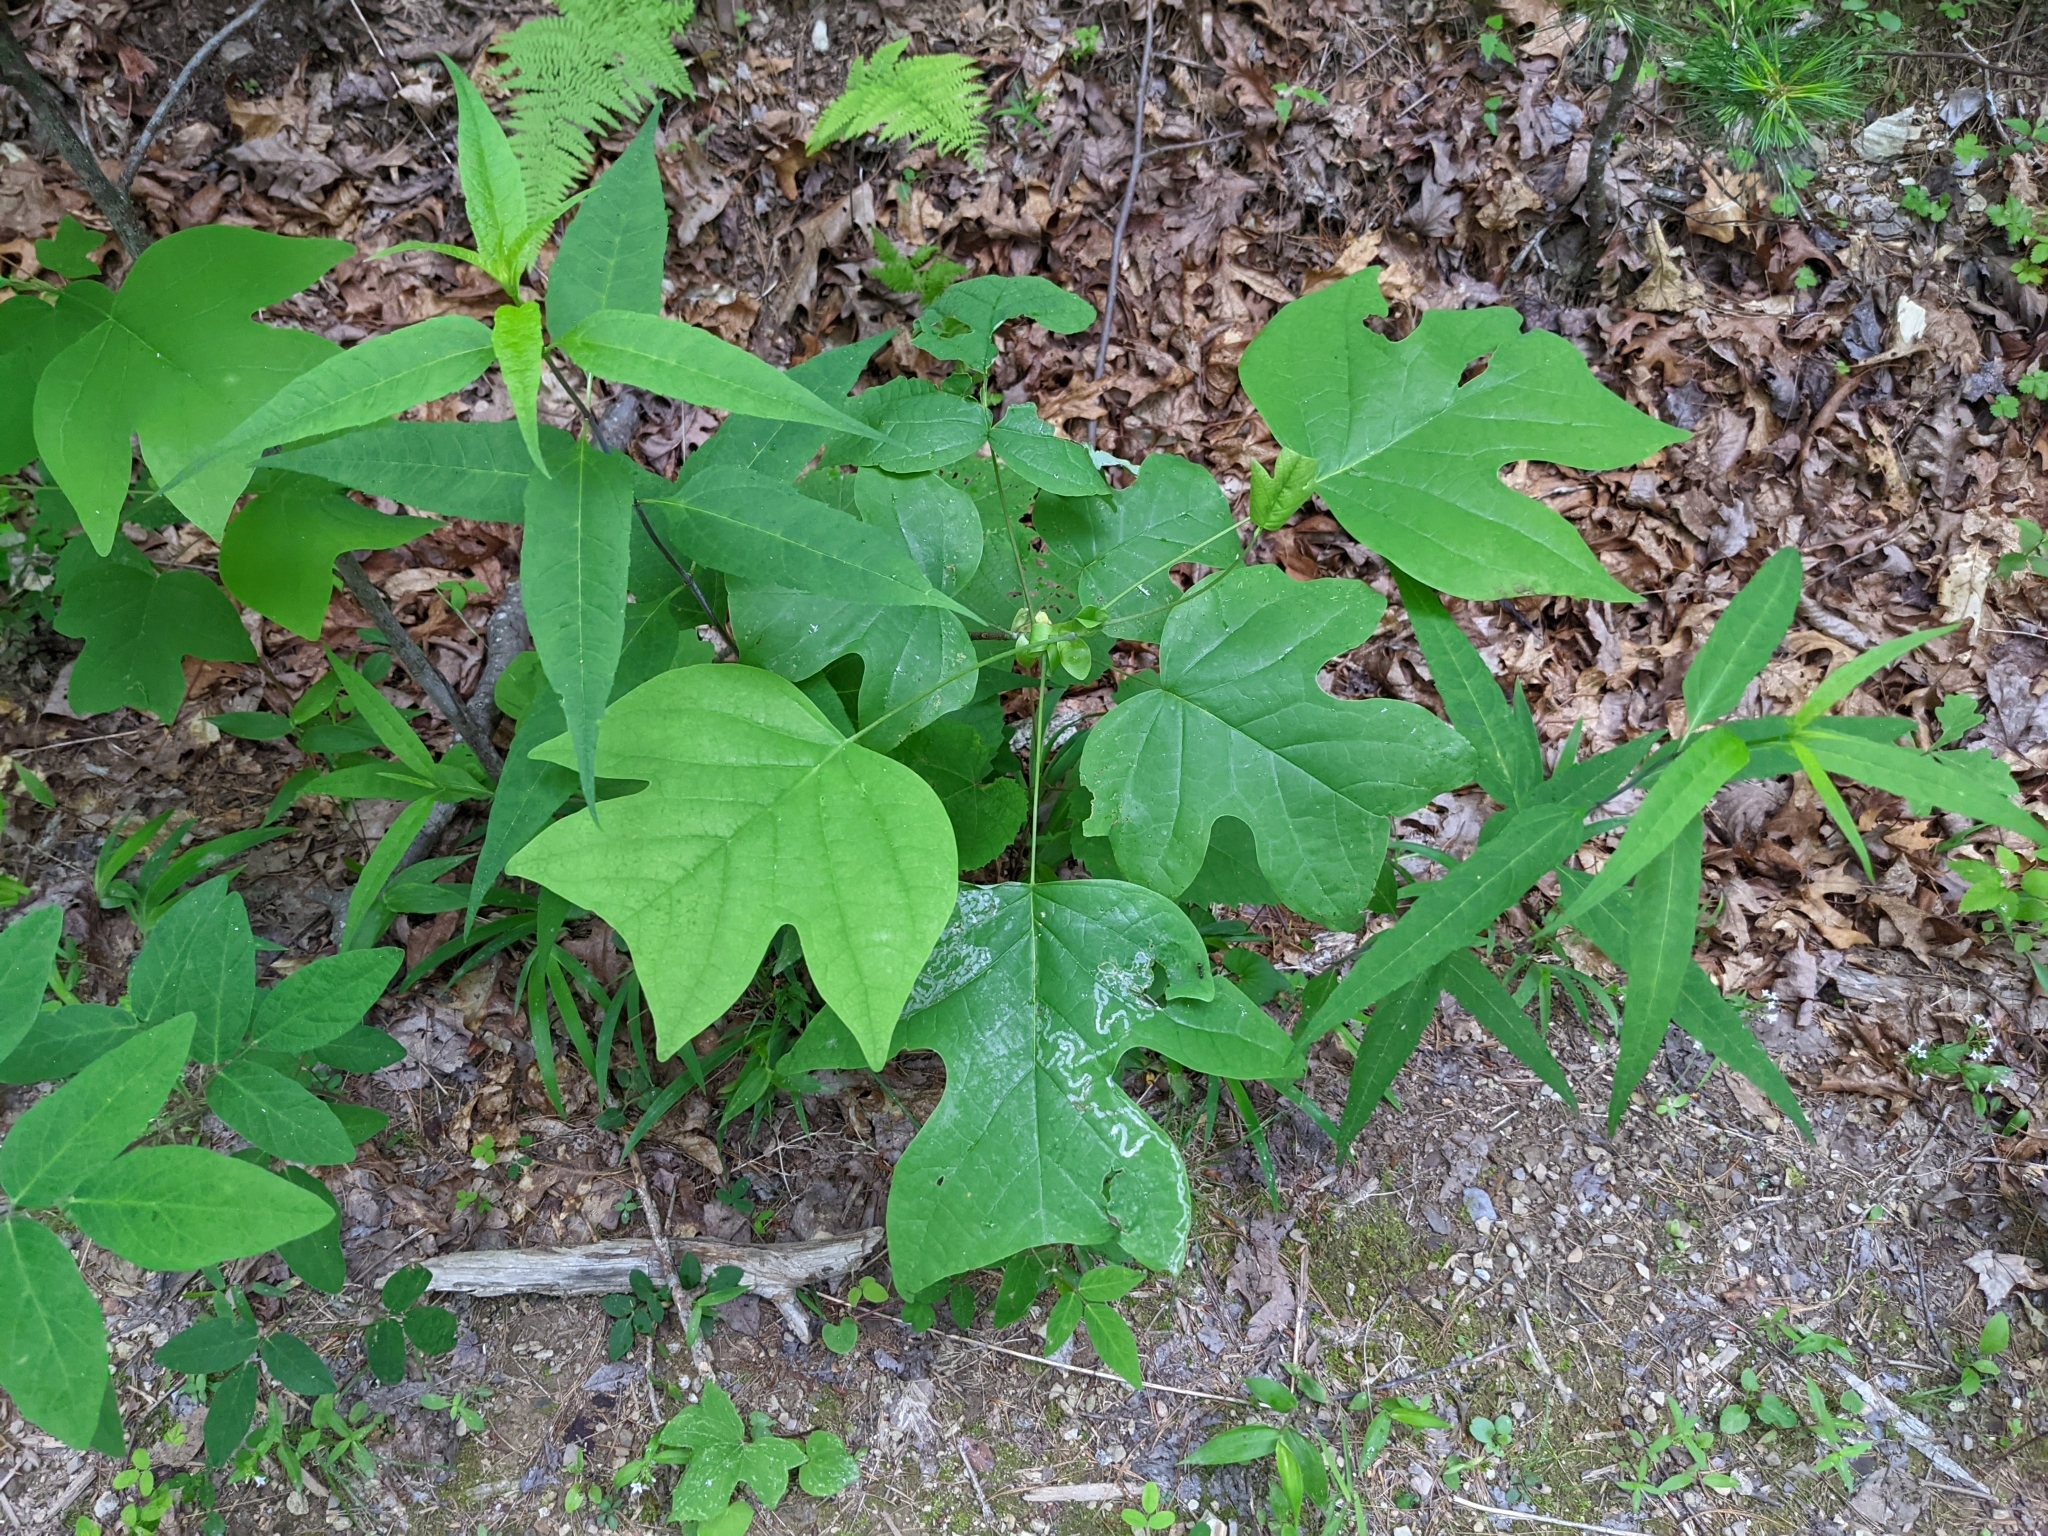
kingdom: Animalia
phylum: Arthropoda
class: Insecta
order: Lepidoptera
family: Gracillariidae
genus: Phyllocnistis
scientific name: Phyllocnistis liriodendronella
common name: Tulip tree leaf miner
